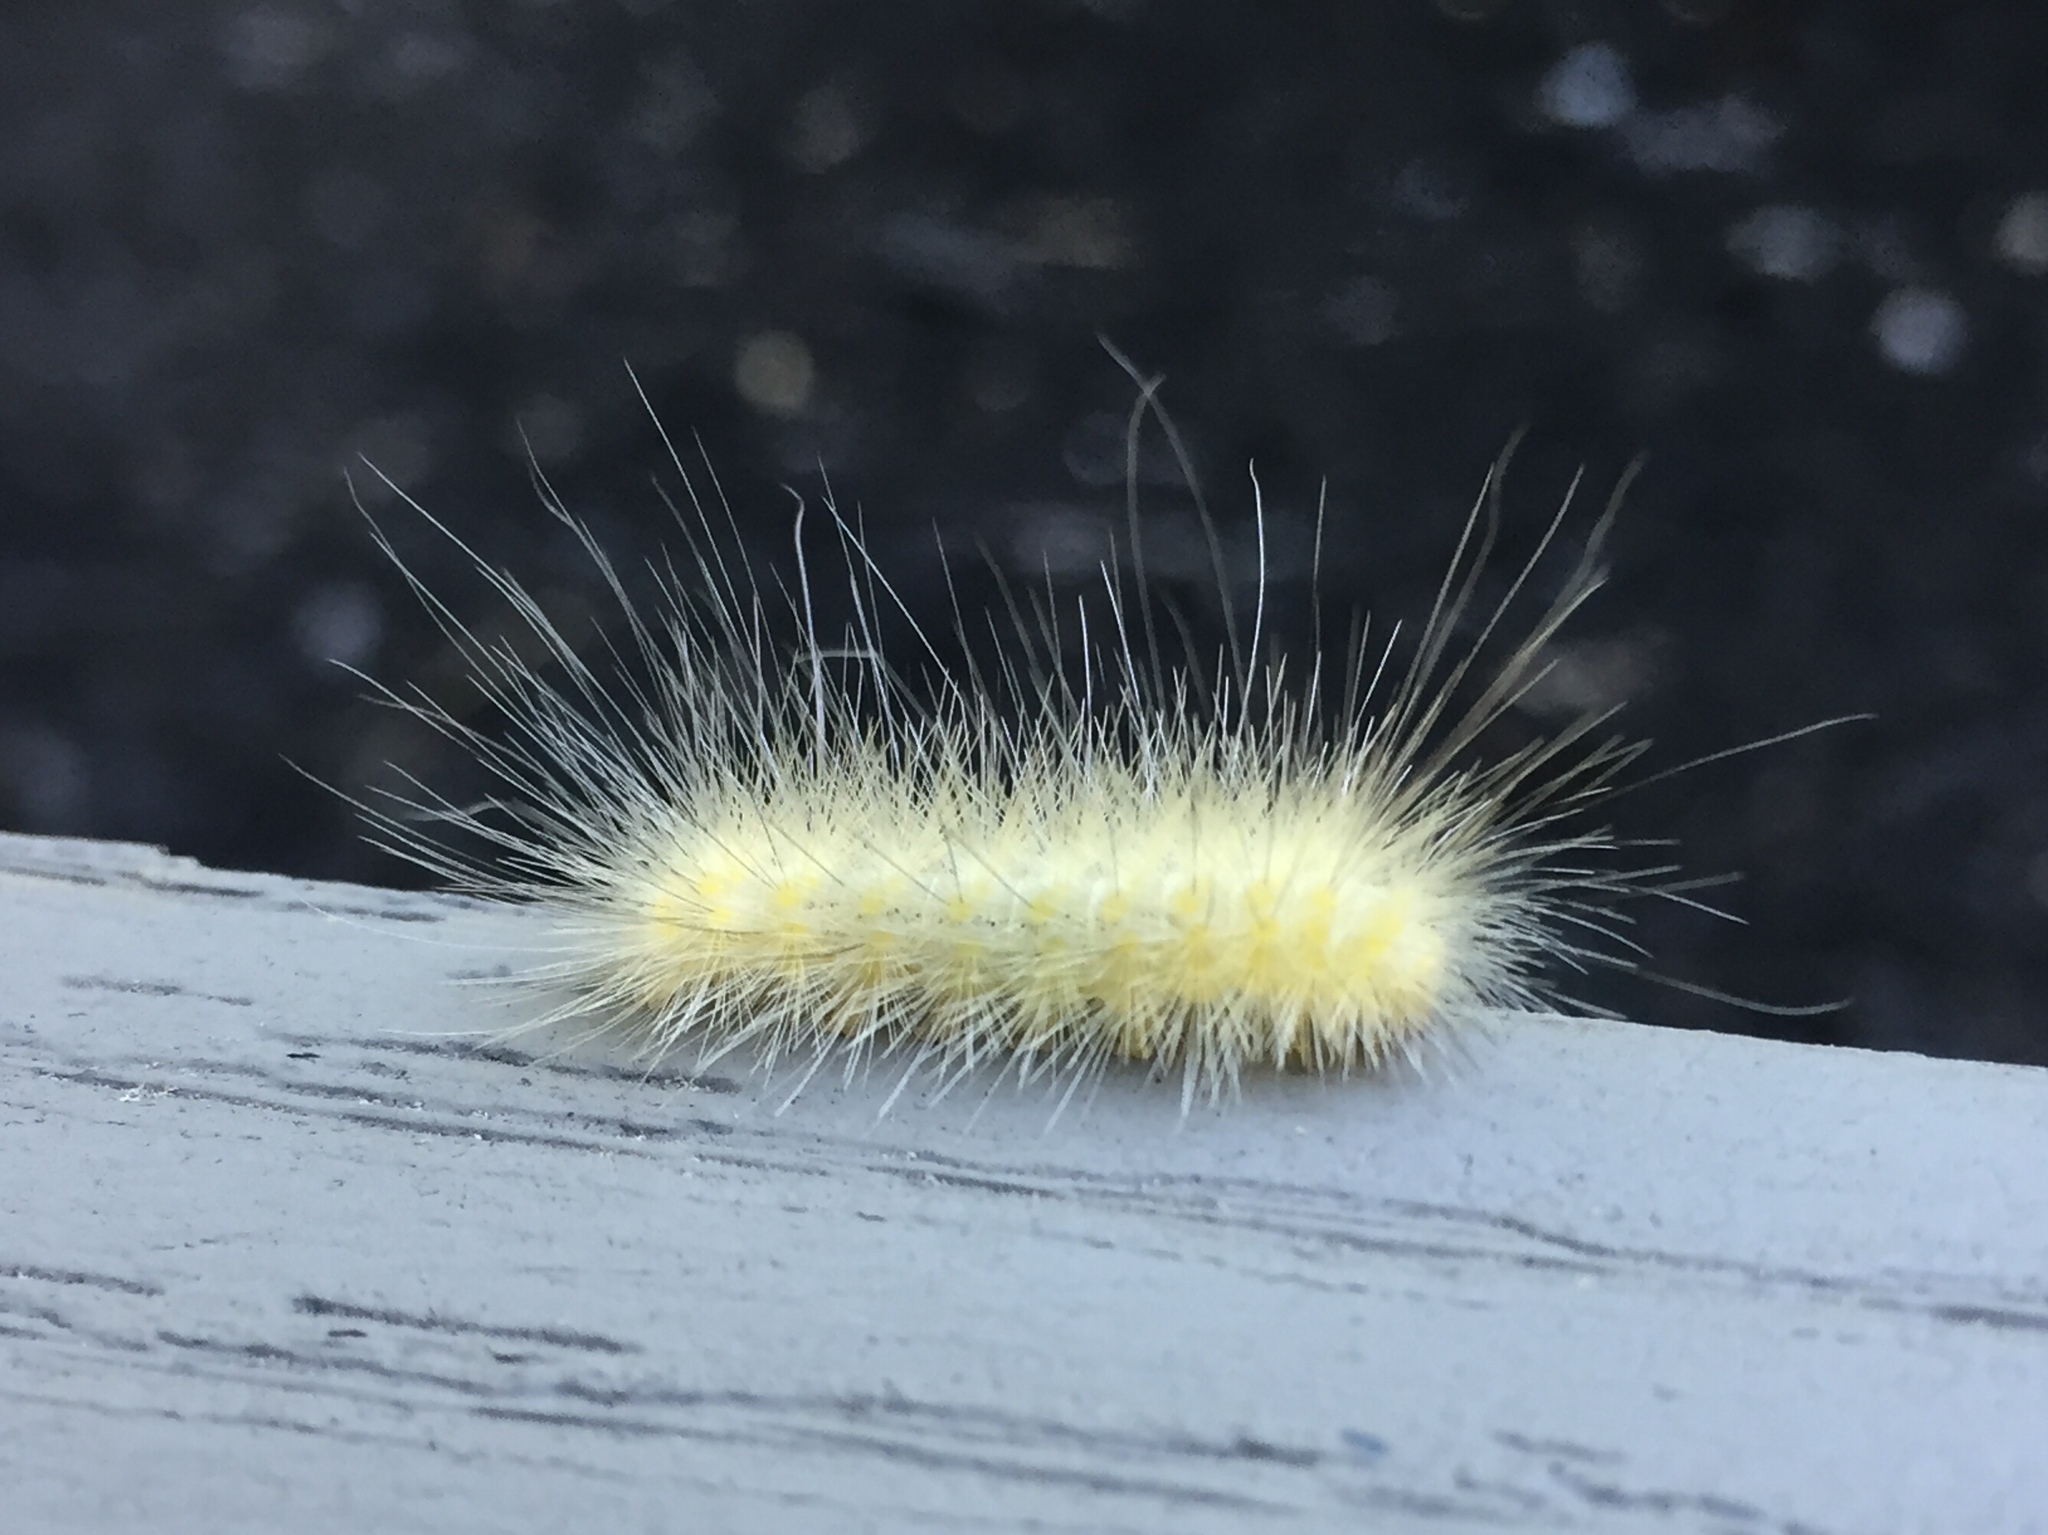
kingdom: Animalia
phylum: Arthropoda
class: Insecta
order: Lepidoptera
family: Erebidae
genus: Spilosoma
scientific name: Spilosoma virginica
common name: Virginia tiger moth
